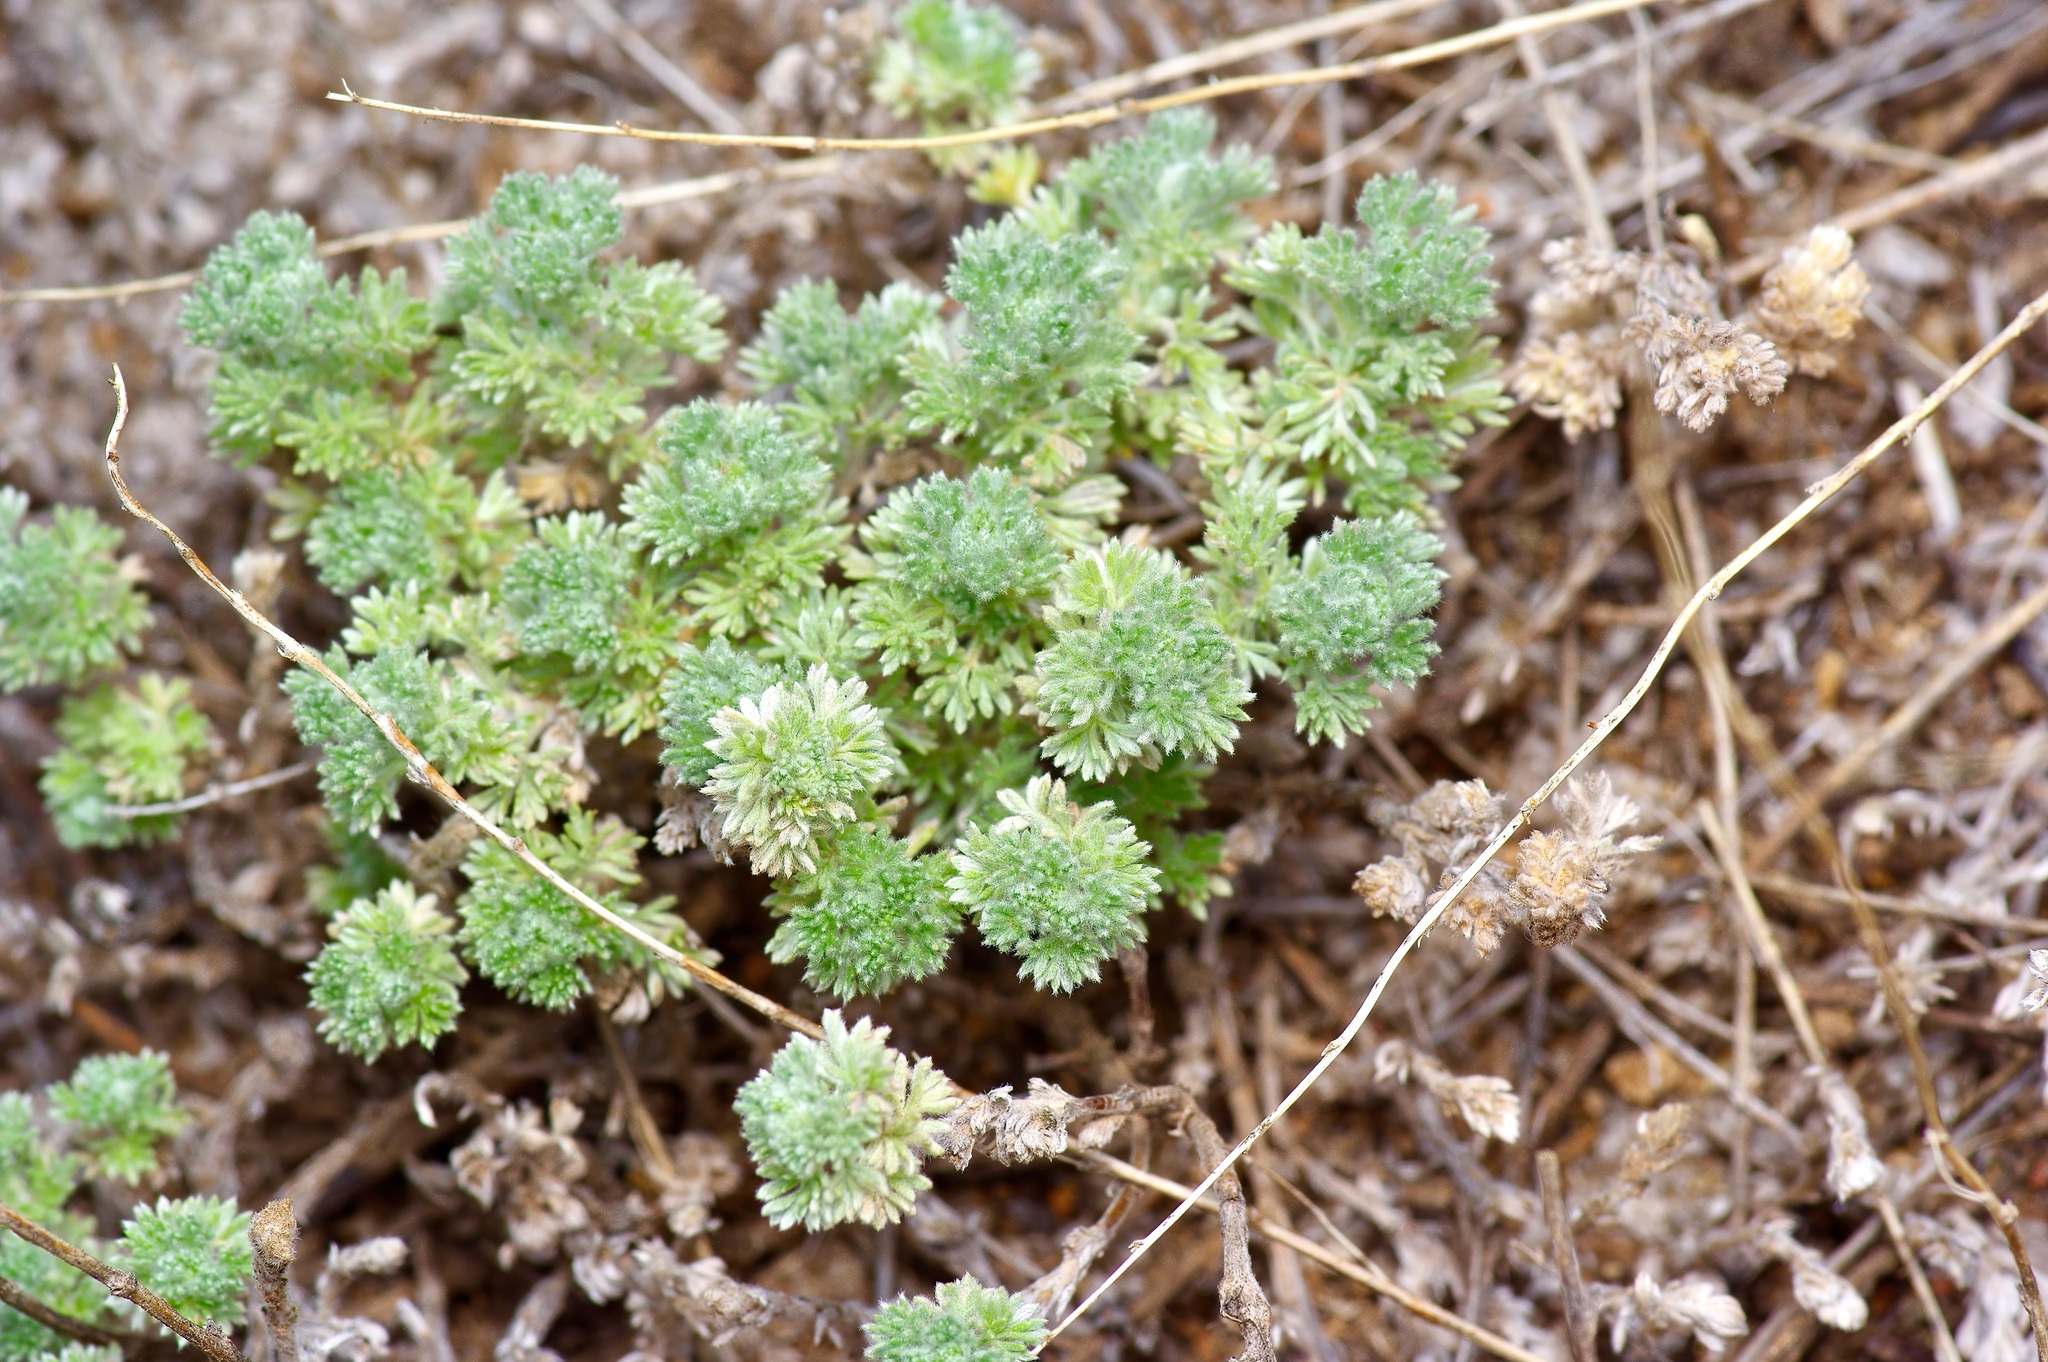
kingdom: Plantae
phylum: Tracheophyta
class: Magnoliopsida
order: Asterales
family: Asteraceae
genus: Artemisia
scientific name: Artemisia frigida
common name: Prairie sagewort
